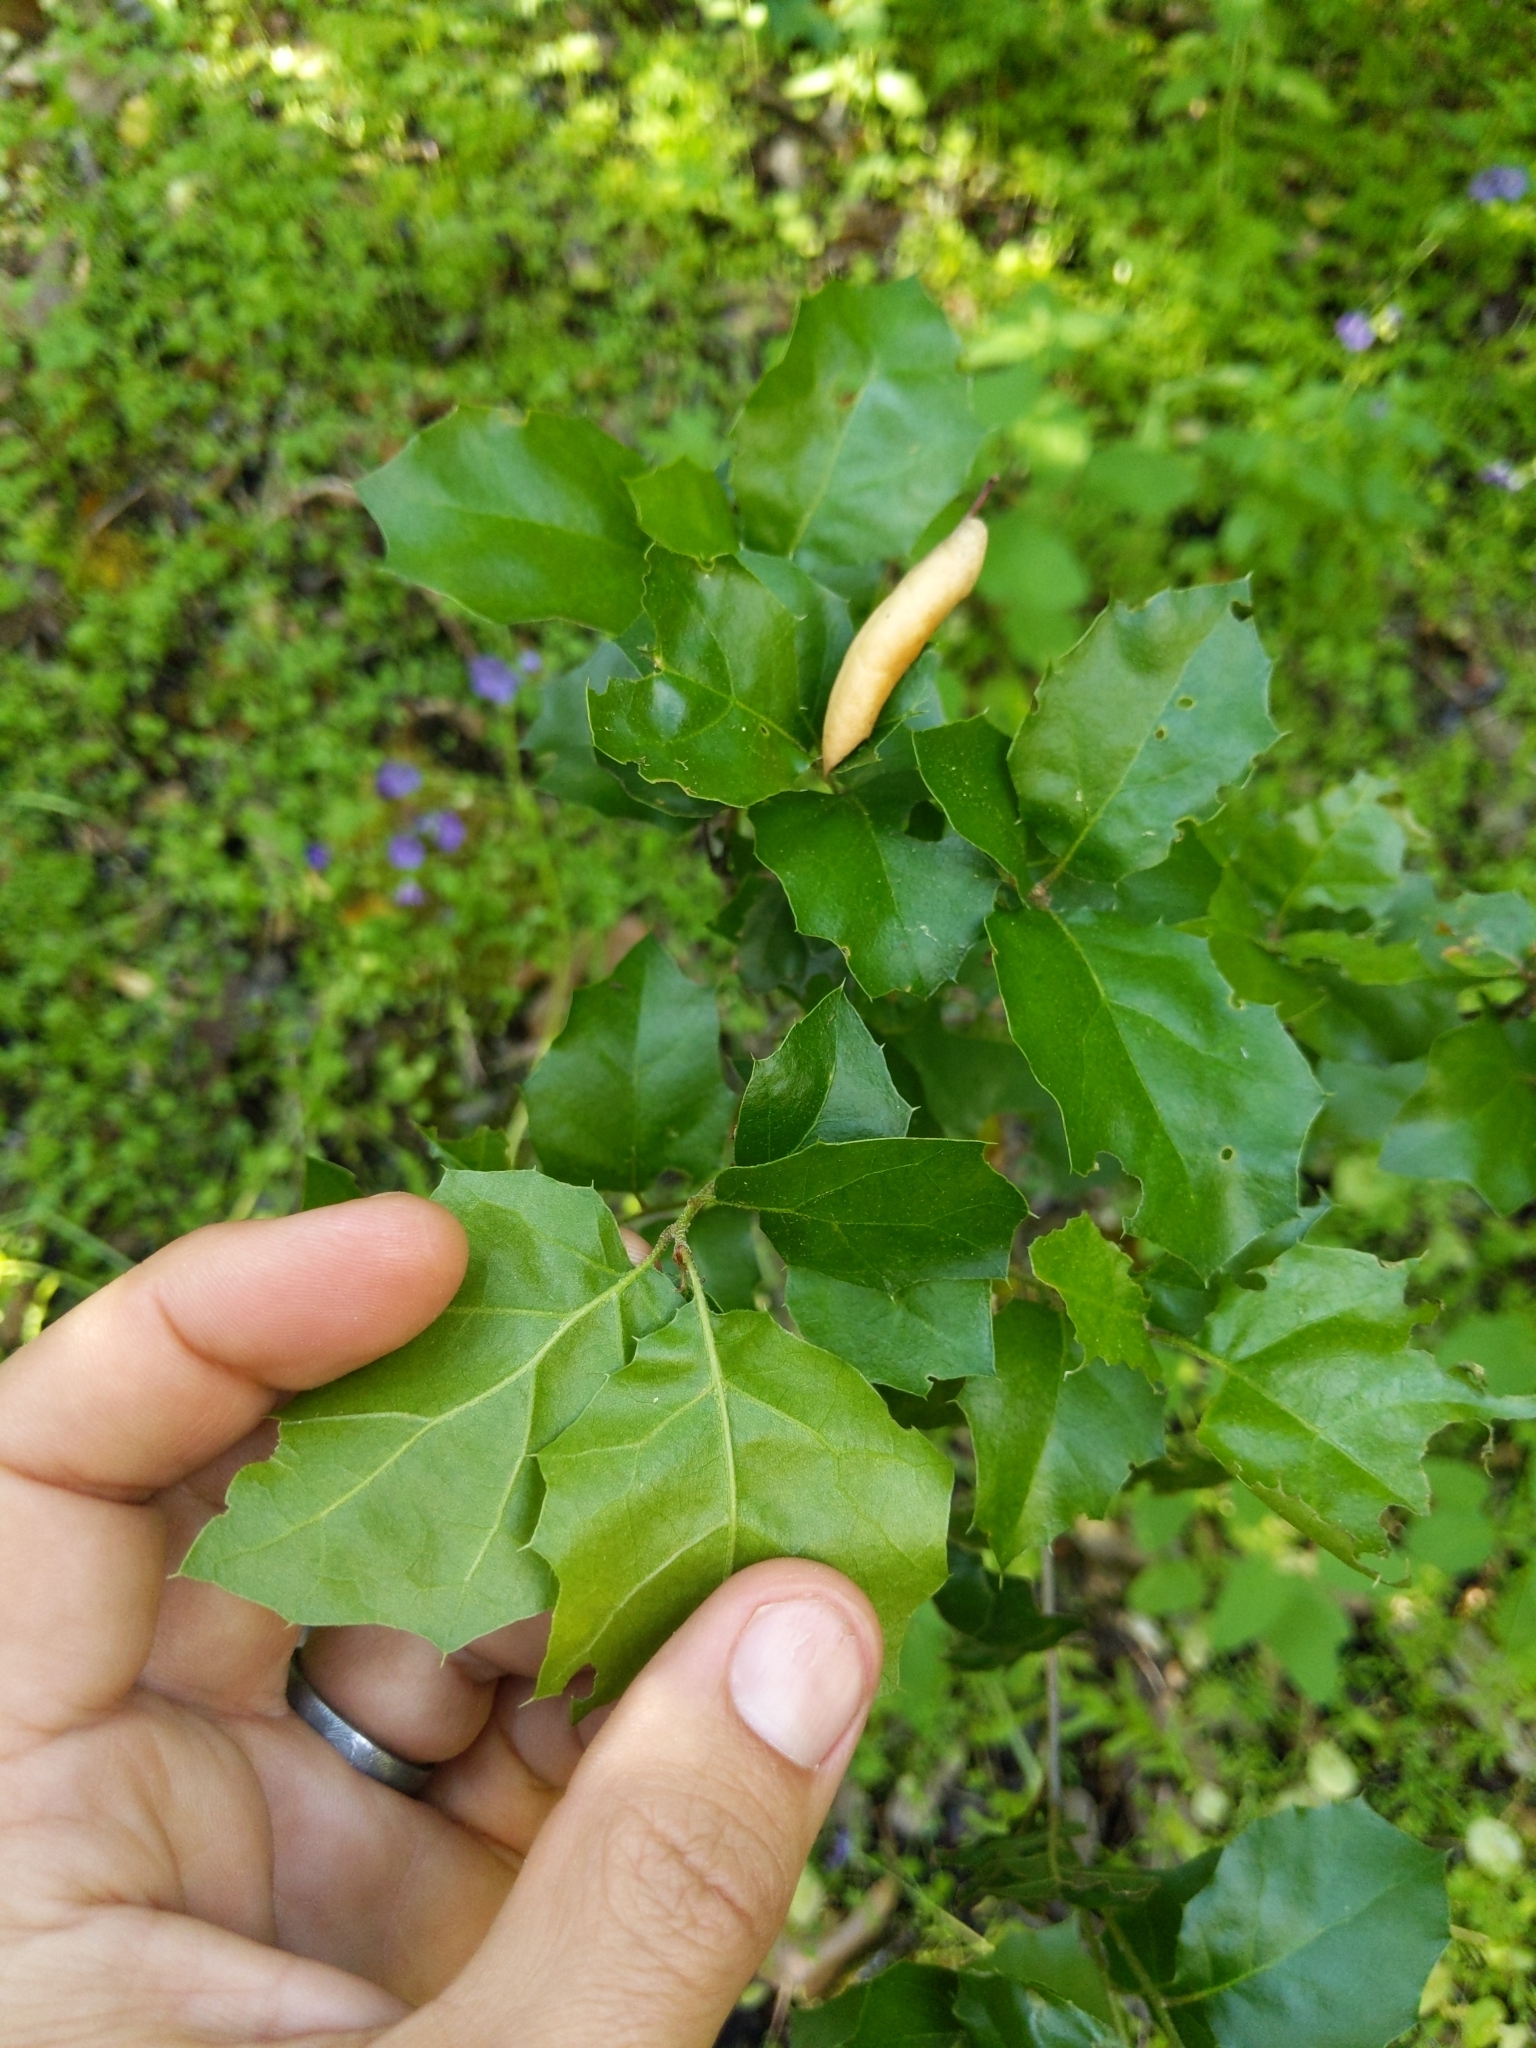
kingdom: Plantae
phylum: Tracheophyta
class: Magnoliopsida
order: Fagales
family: Fagaceae
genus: Quercus
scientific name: Quercus agrifolia
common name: California live oak
